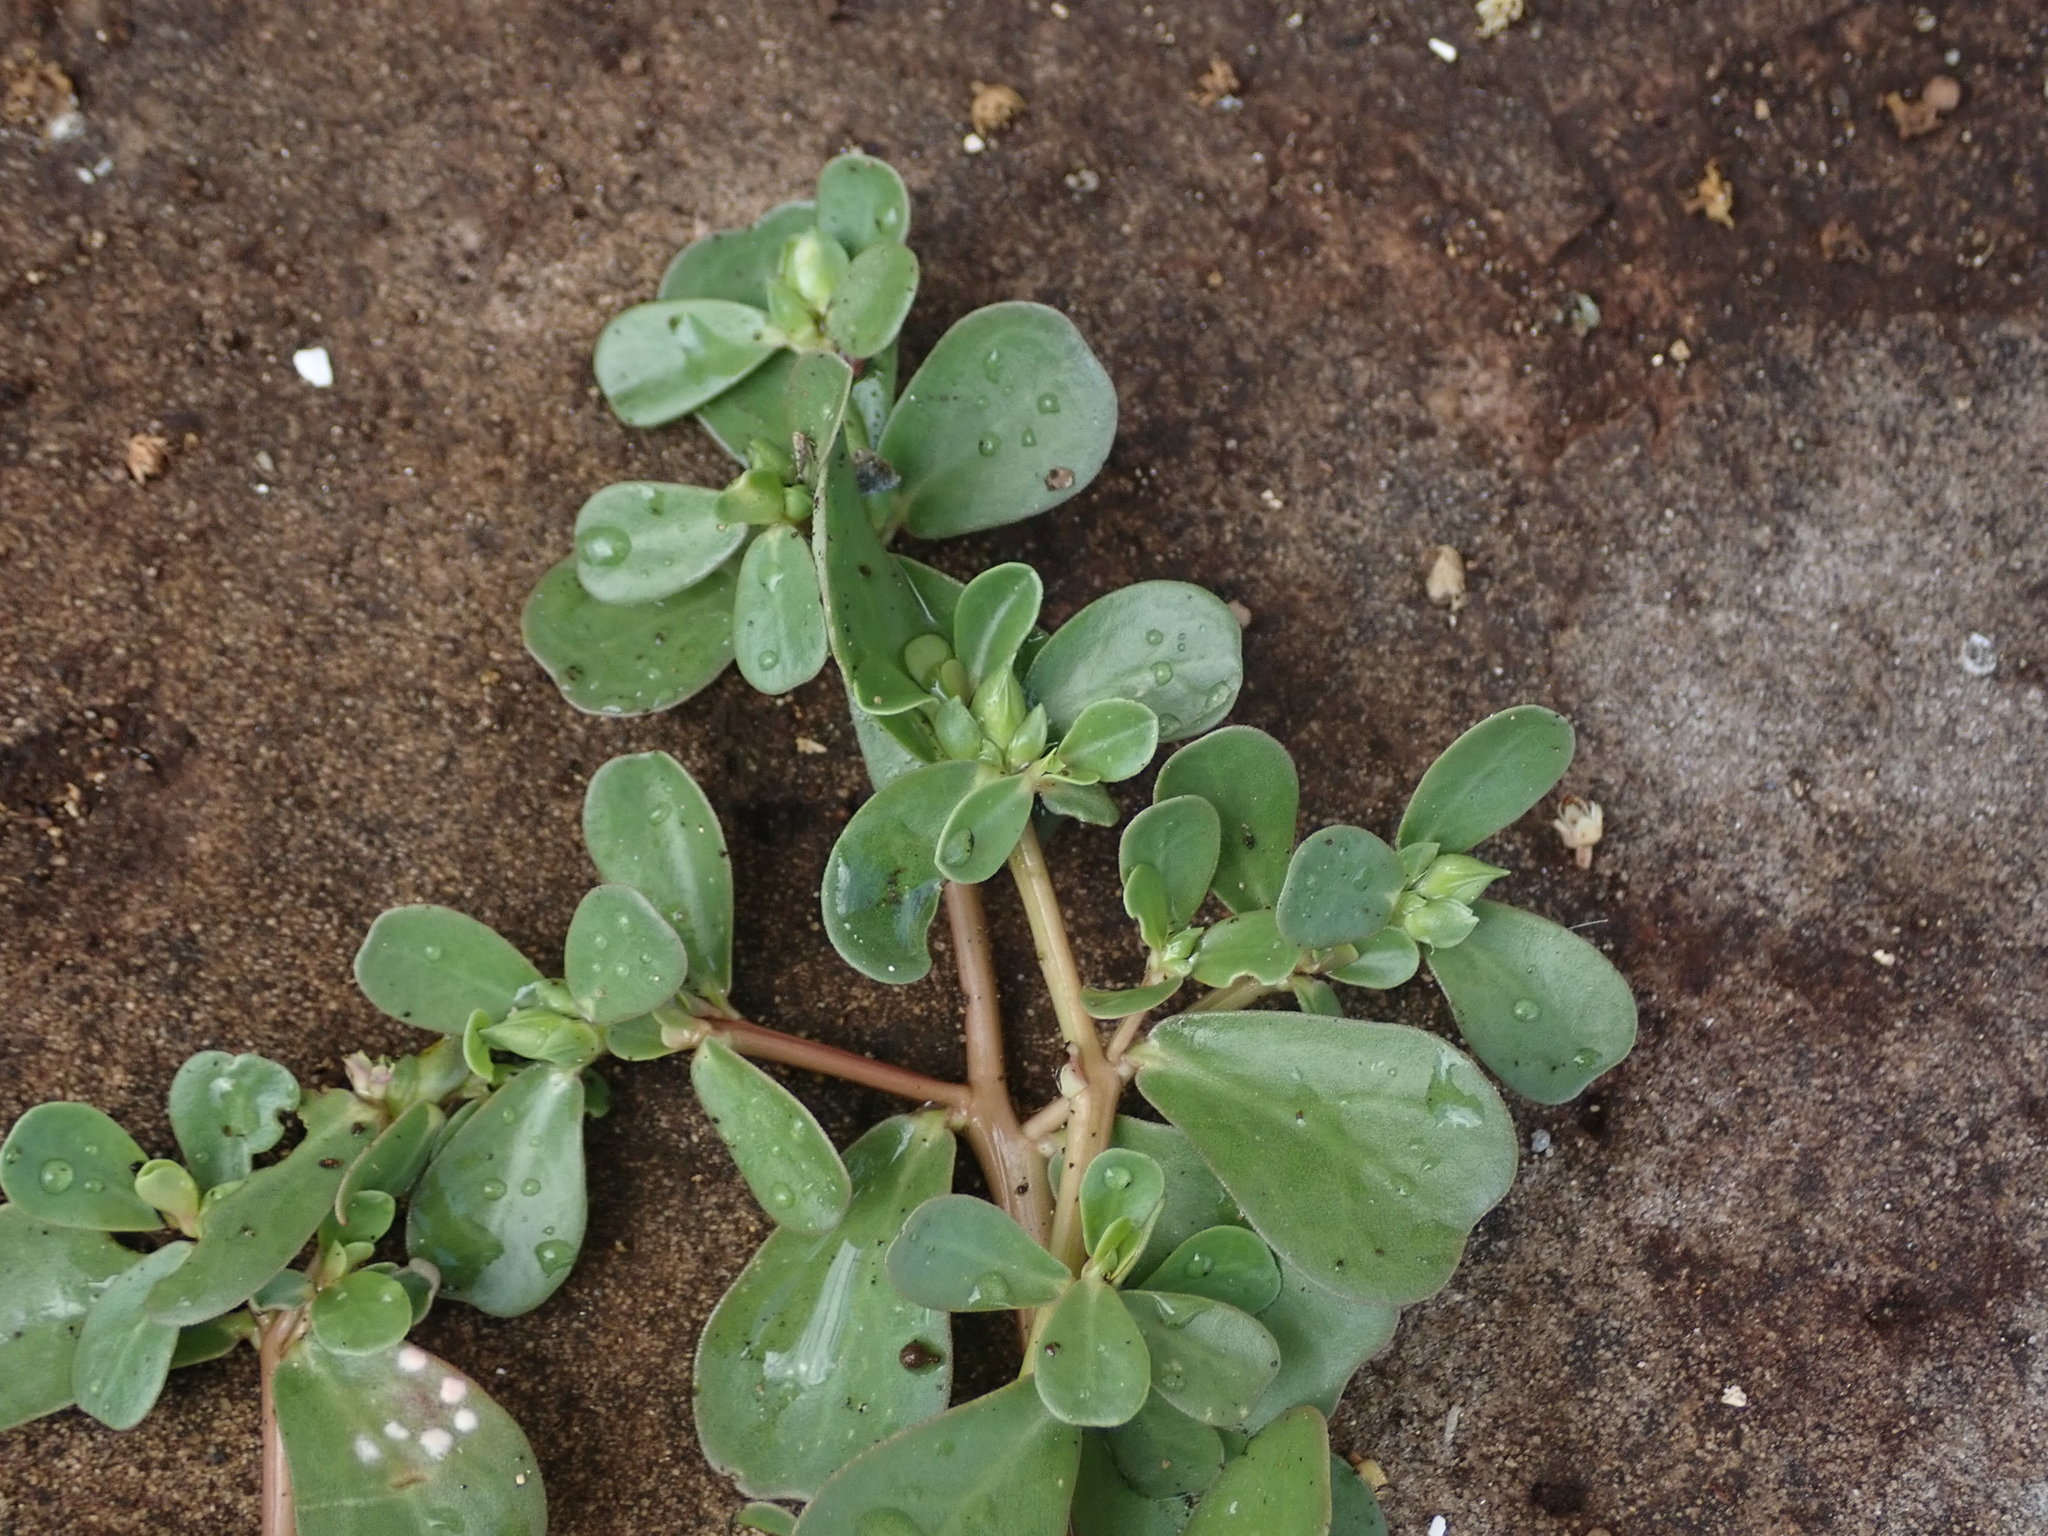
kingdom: Plantae
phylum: Tracheophyta
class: Magnoliopsida
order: Caryophyllales
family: Portulacaceae
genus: Portulaca
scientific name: Portulaca oleracea
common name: Common purslane
